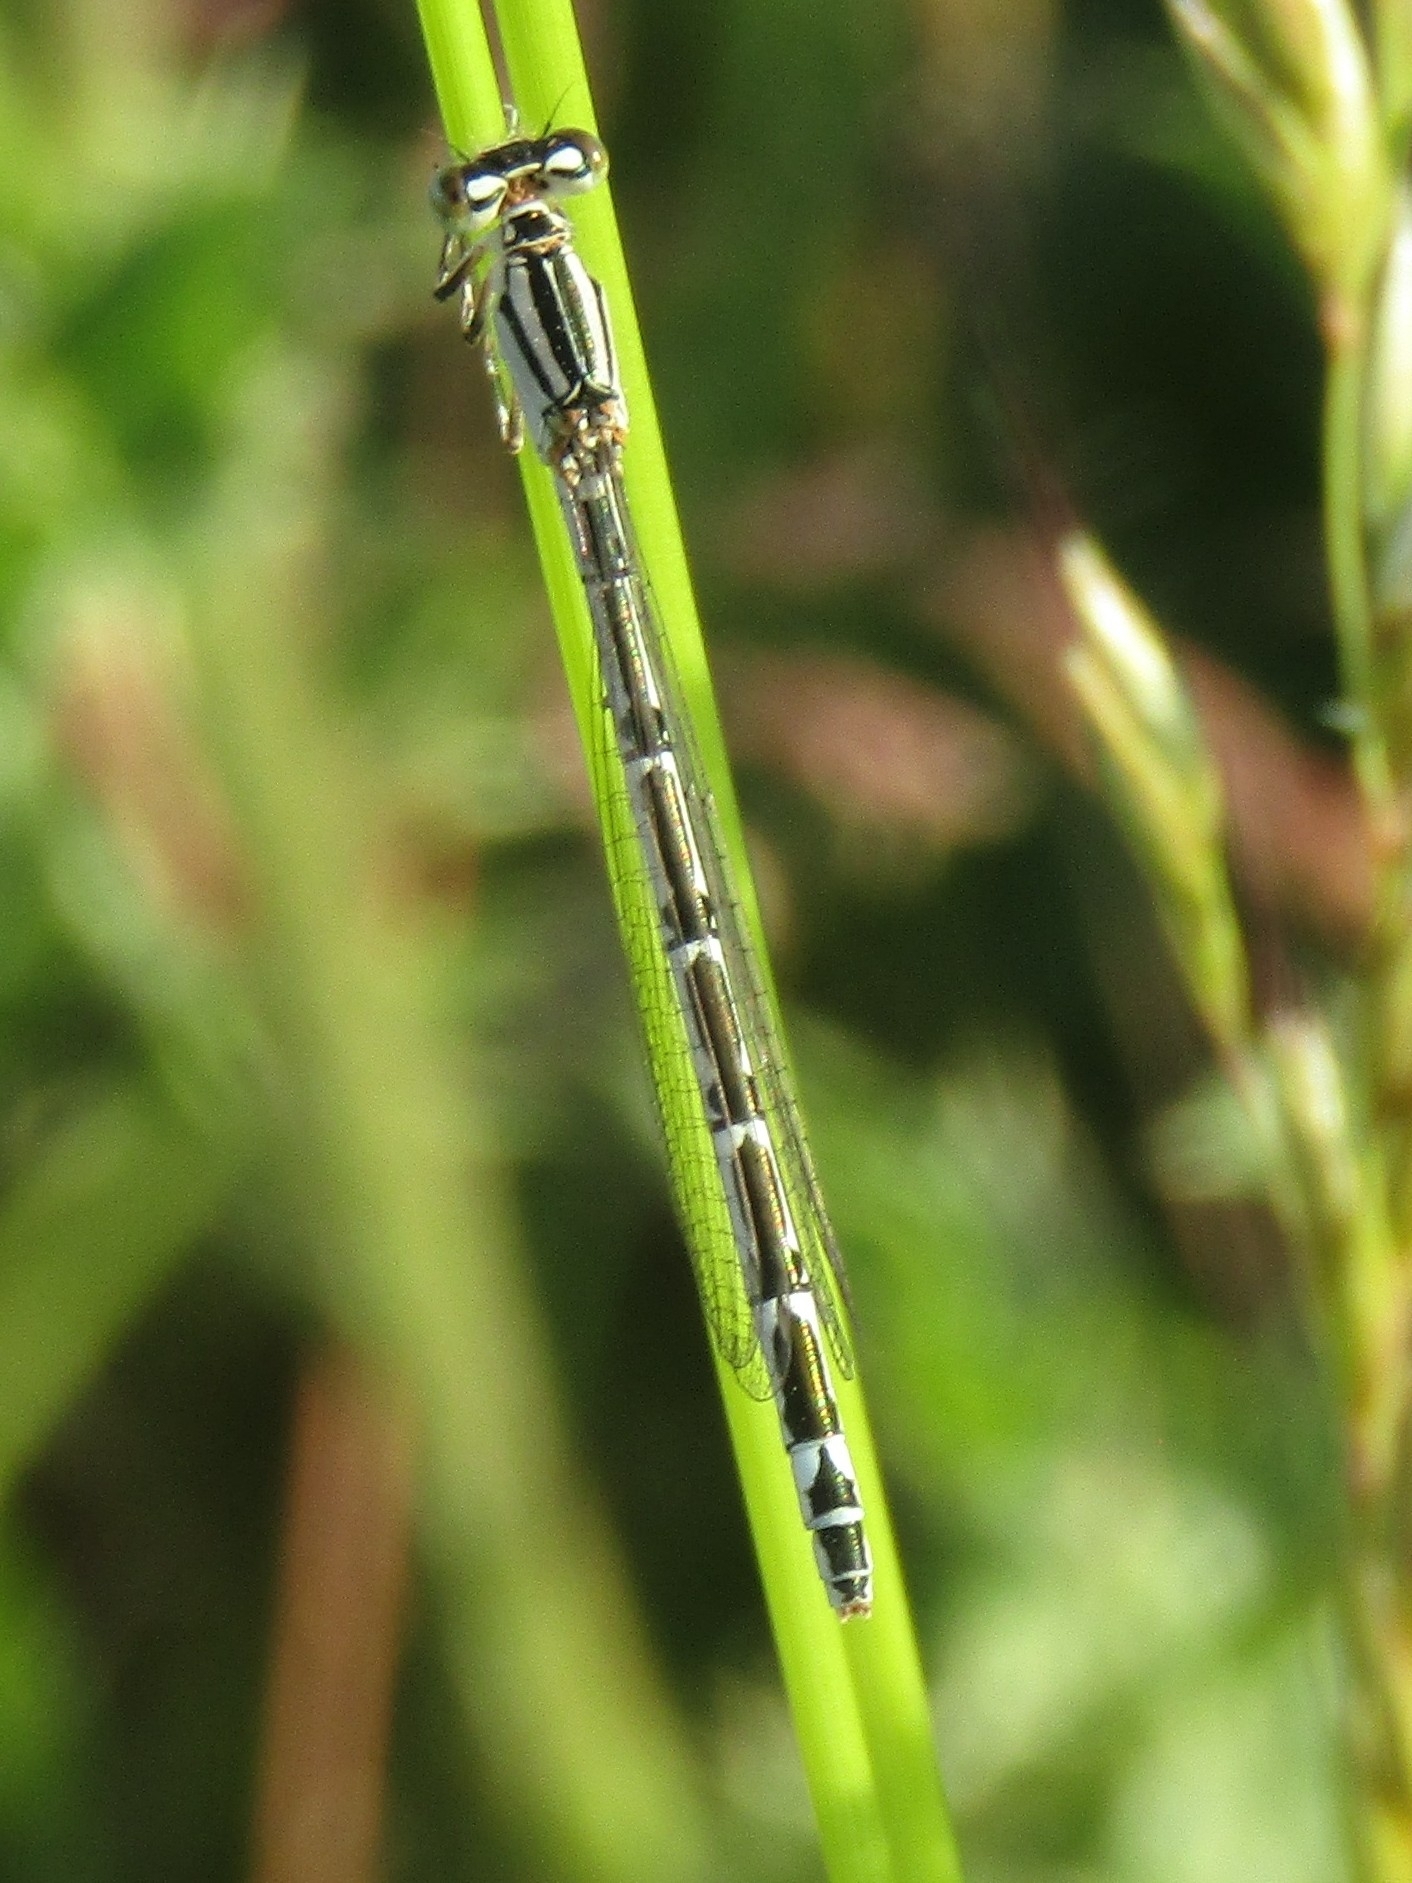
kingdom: Animalia
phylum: Arthropoda
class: Insecta
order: Odonata
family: Coenagrionidae
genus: Enallagma
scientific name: Enallagma cyathigerum
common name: Common blue damselfly
